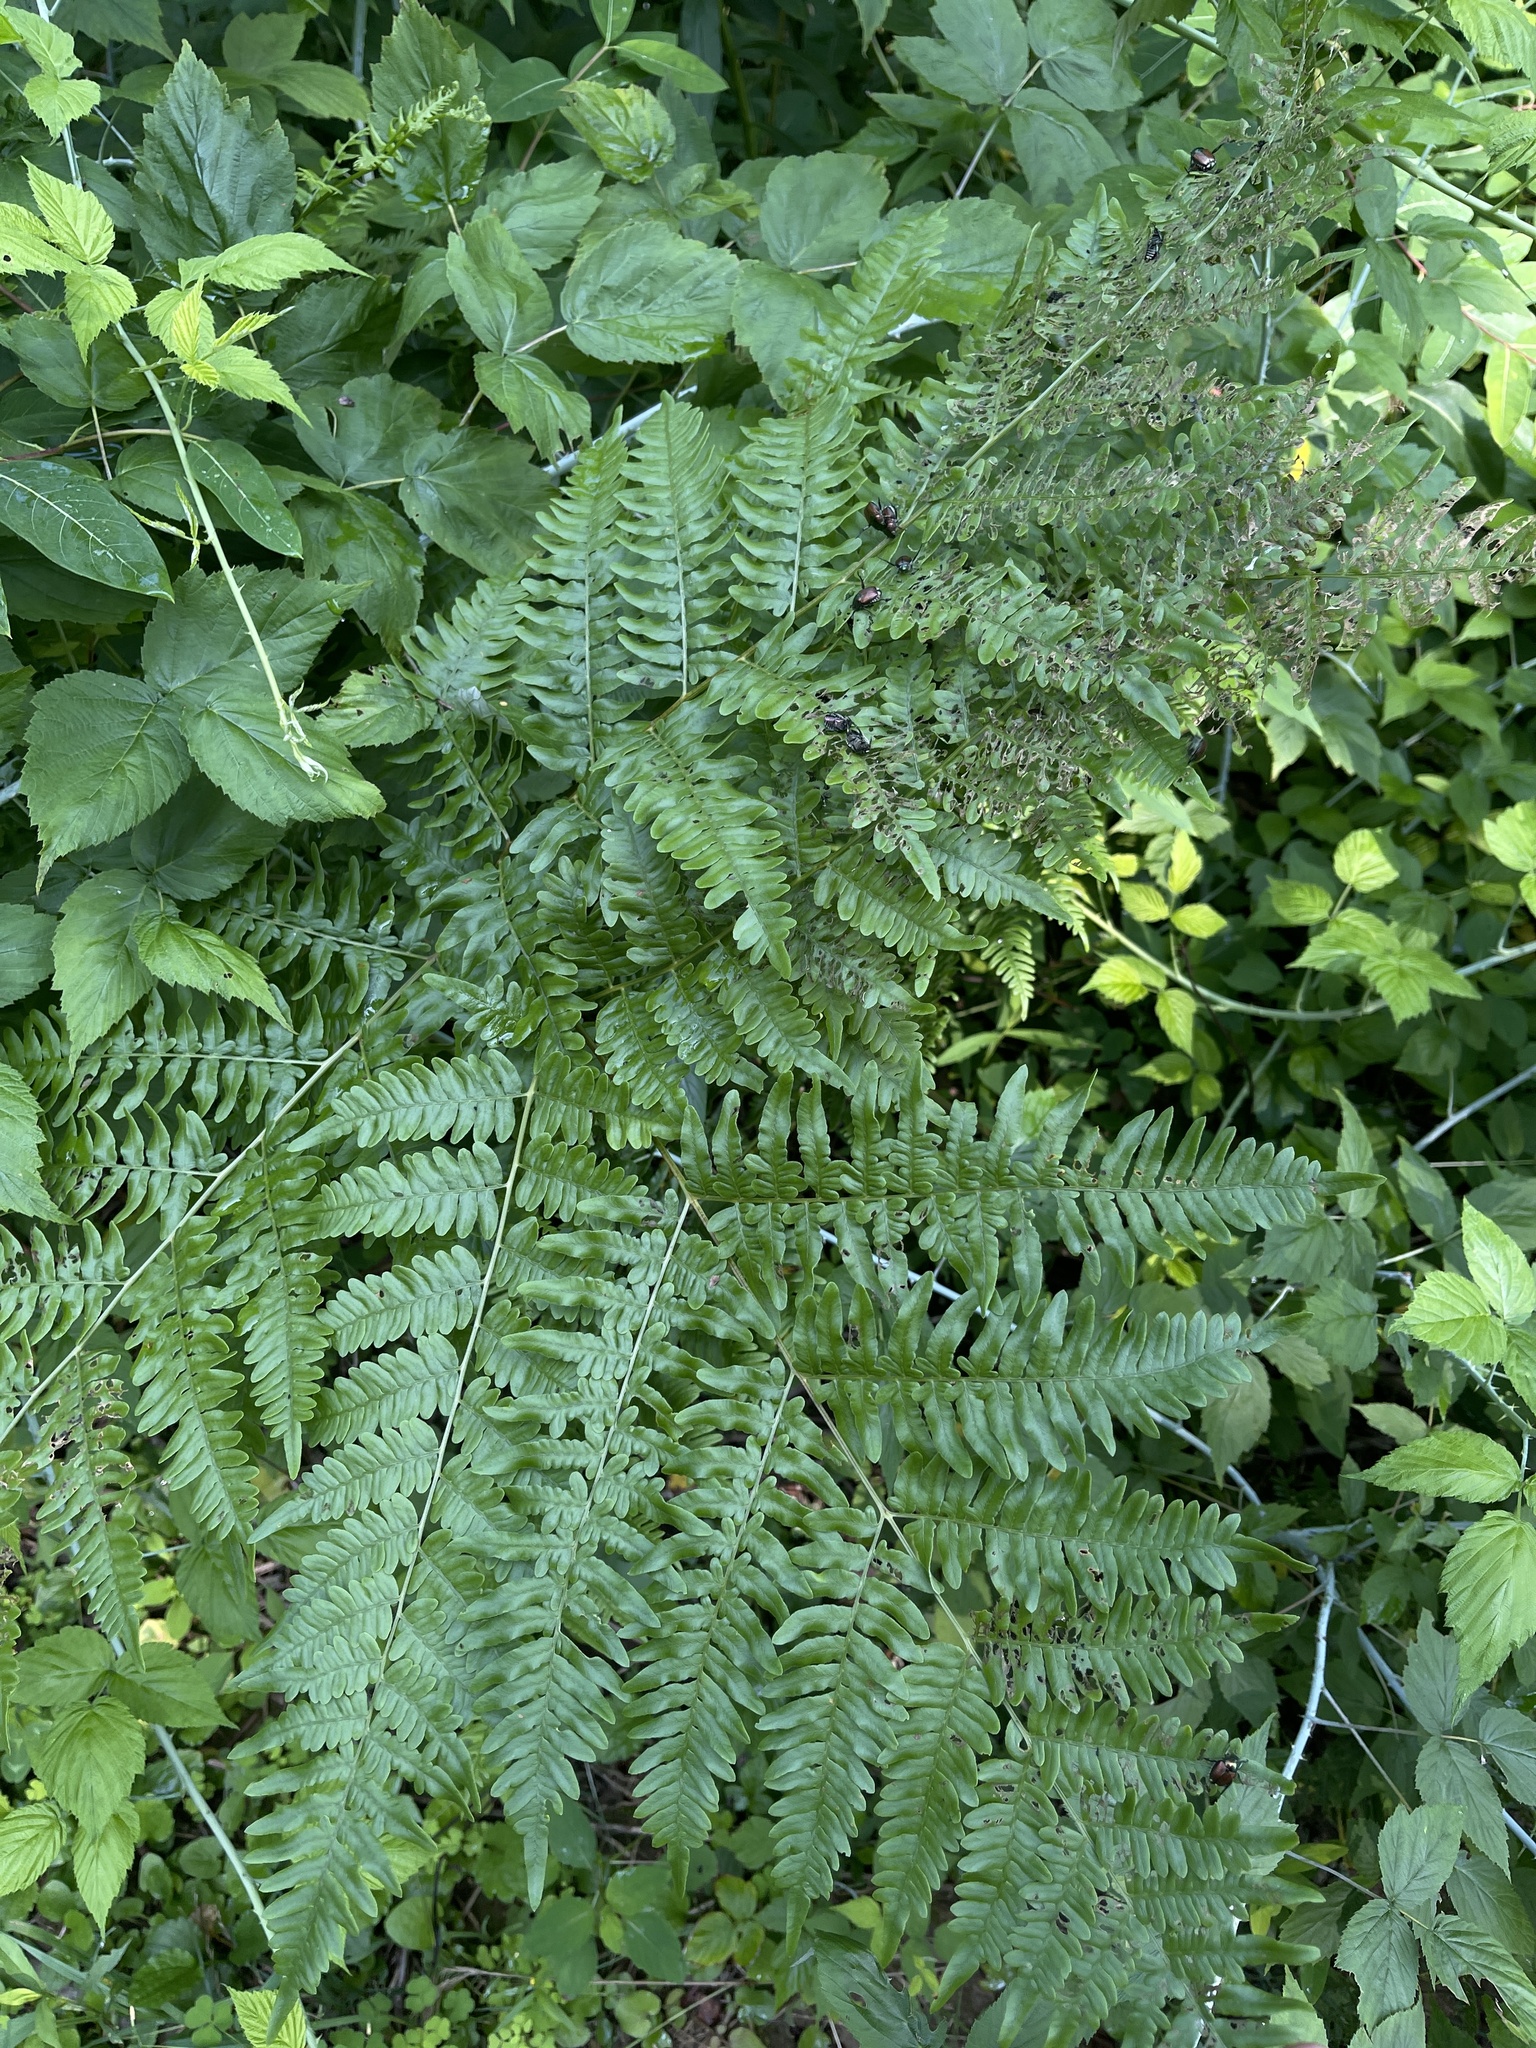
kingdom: Plantae
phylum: Tracheophyta
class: Polypodiopsida
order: Polypodiales
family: Dennstaedtiaceae
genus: Pteridium
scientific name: Pteridium aquilinum
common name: Bracken
